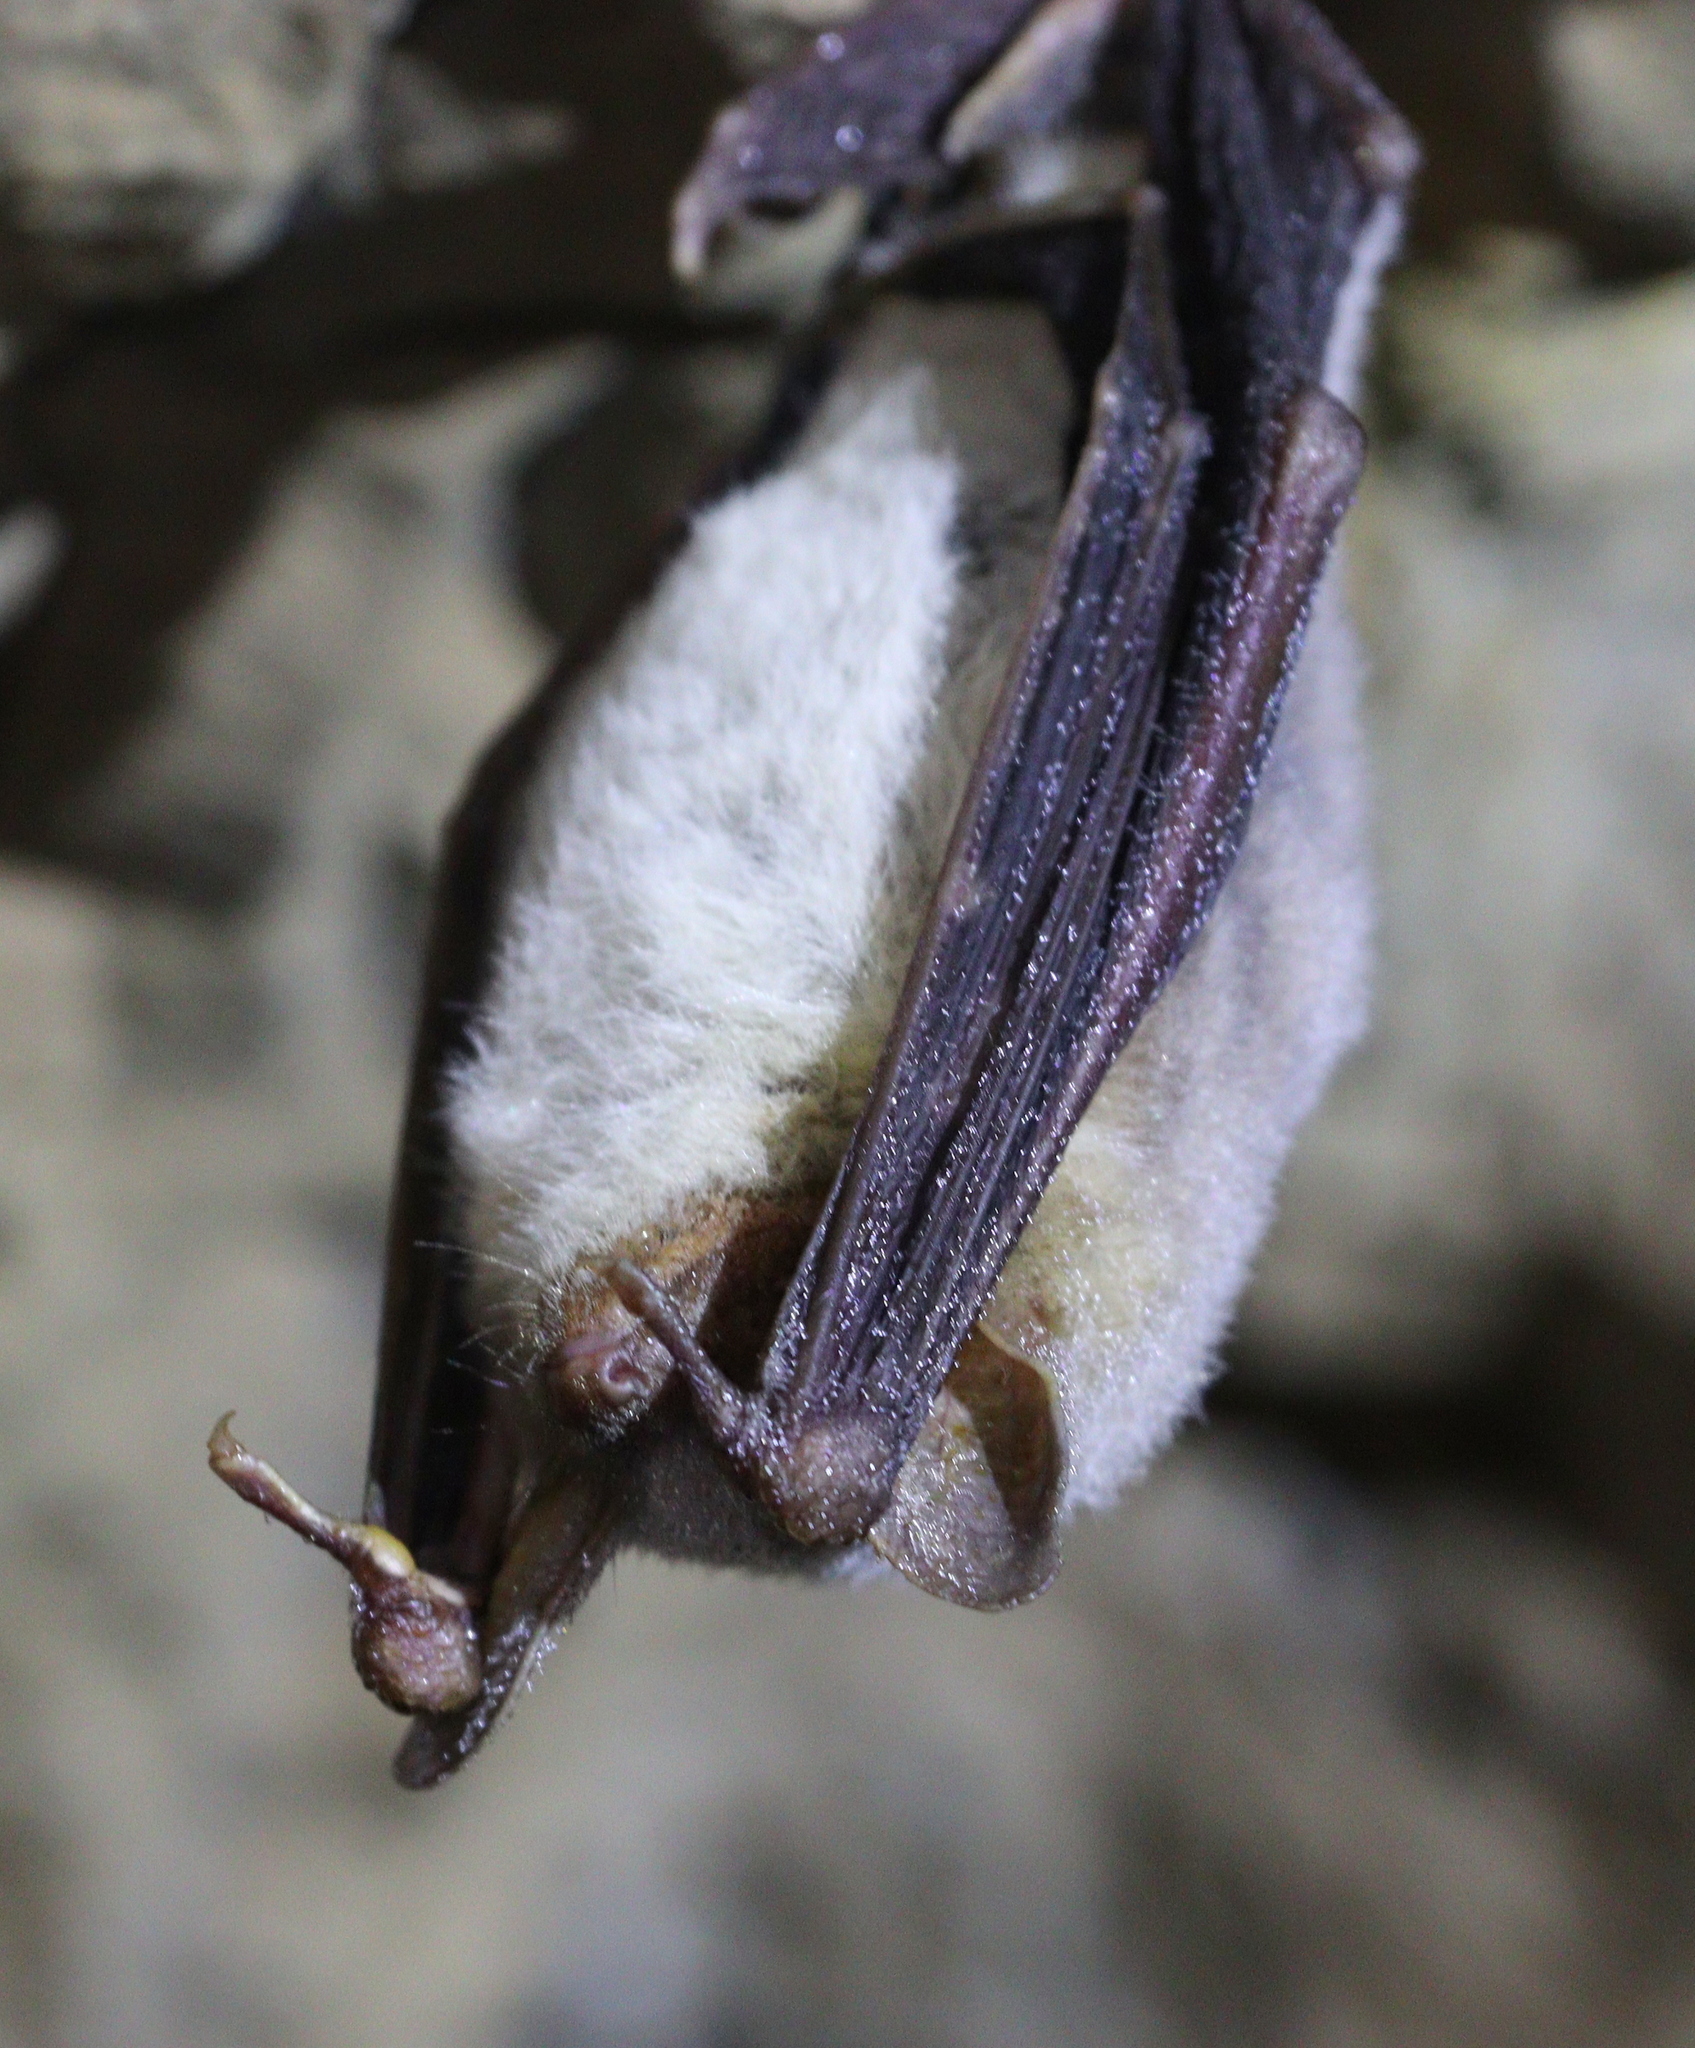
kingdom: Animalia
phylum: Chordata
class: Mammalia
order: Chiroptera
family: Vespertilionidae
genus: Myotis
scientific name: Myotis myotis
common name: Greater mouse-eared bat
